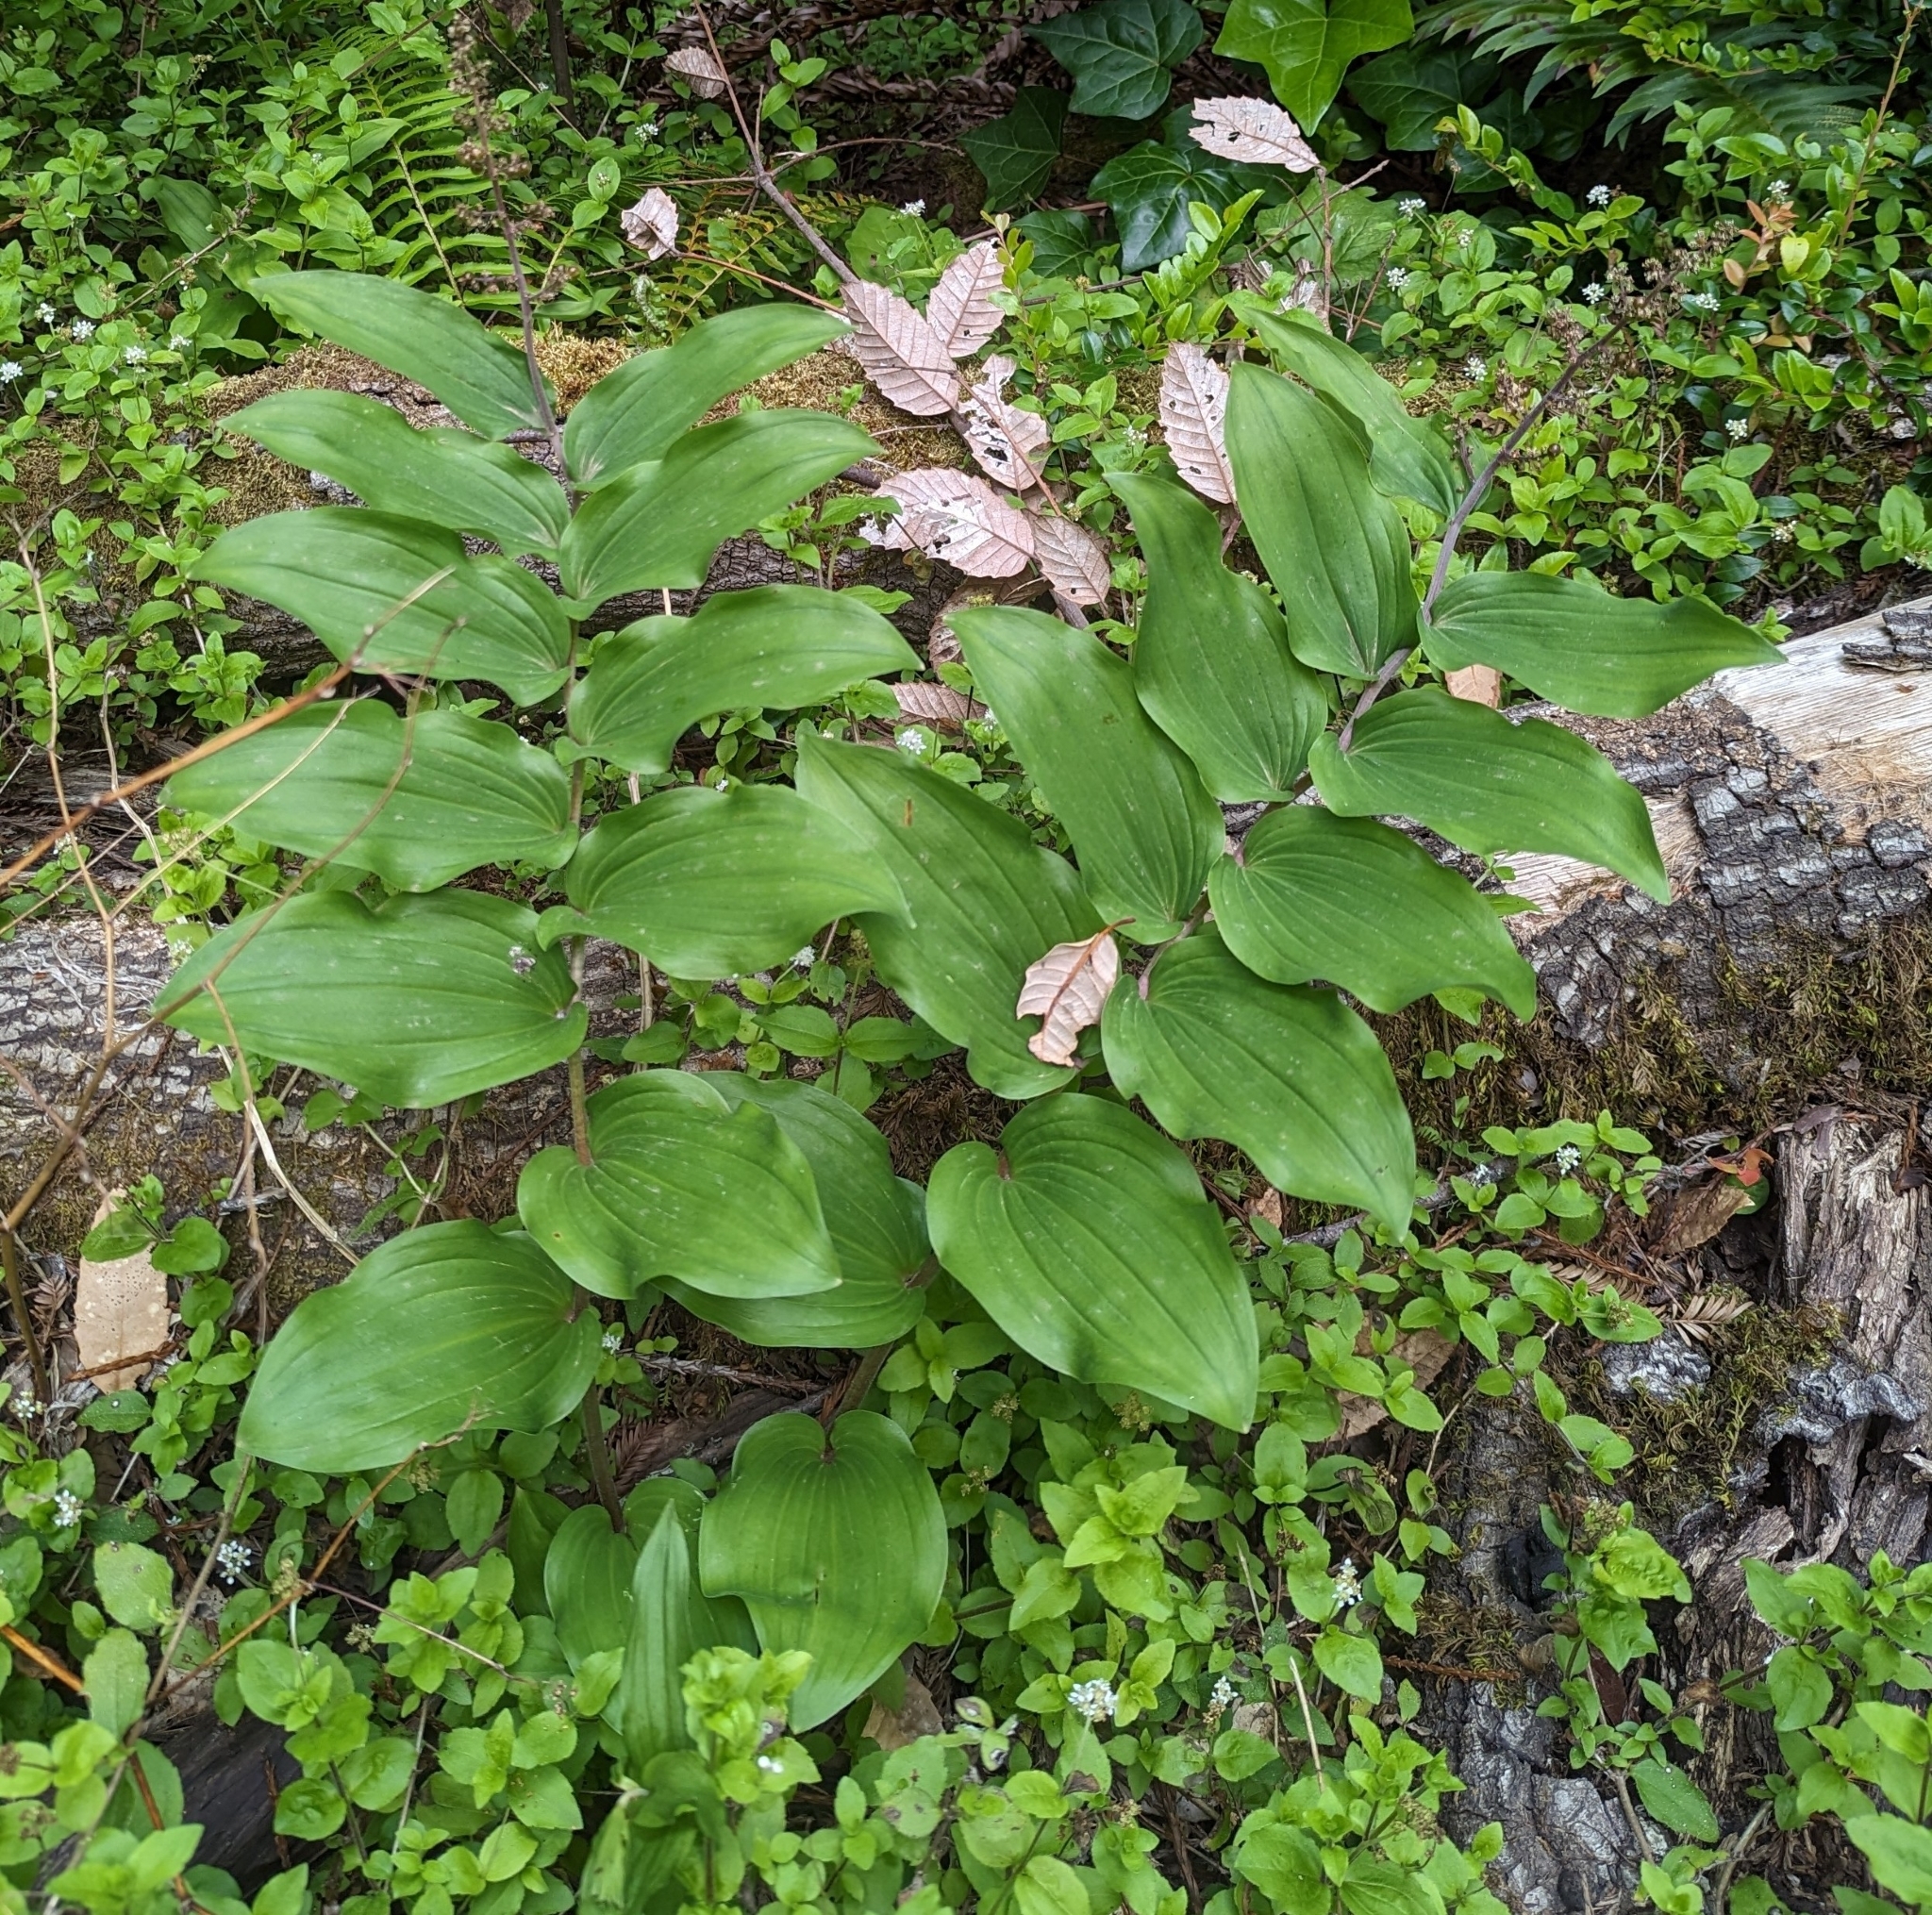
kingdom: Plantae
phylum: Tracheophyta
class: Liliopsida
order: Asparagales
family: Asparagaceae
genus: Maianthemum
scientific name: Maianthemum racemosum
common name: False spikenard
